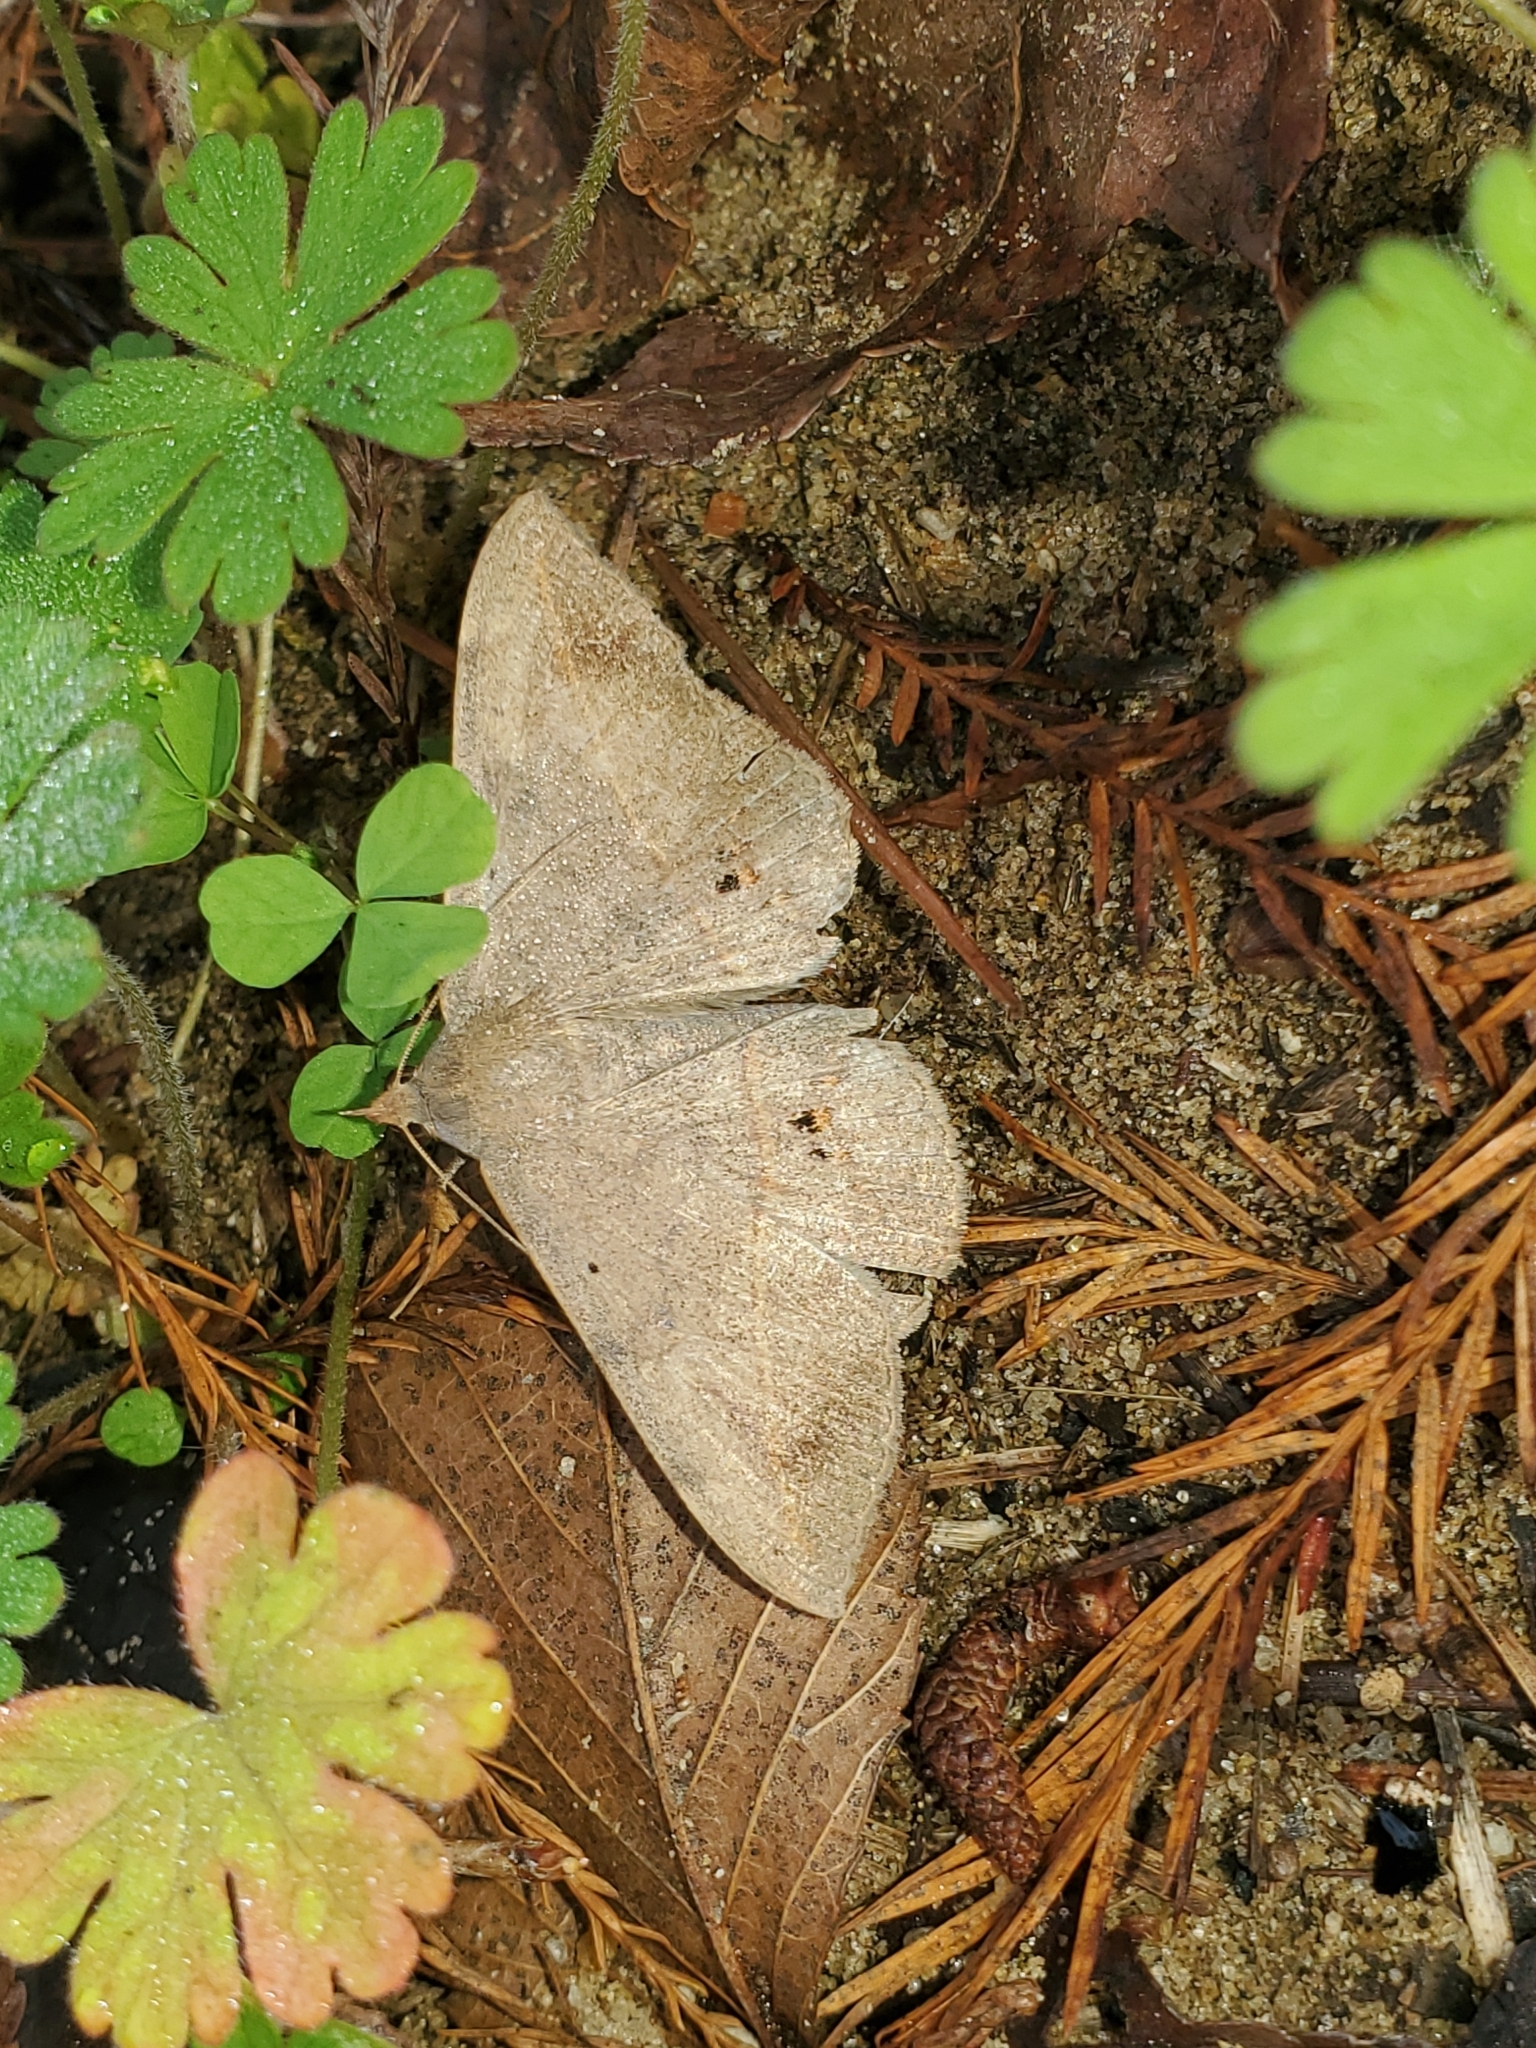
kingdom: Animalia
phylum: Arthropoda
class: Insecta
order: Lepidoptera
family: Erebidae
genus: Anticarsia
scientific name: Anticarsia gemmatalis
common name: Cutworm moth
